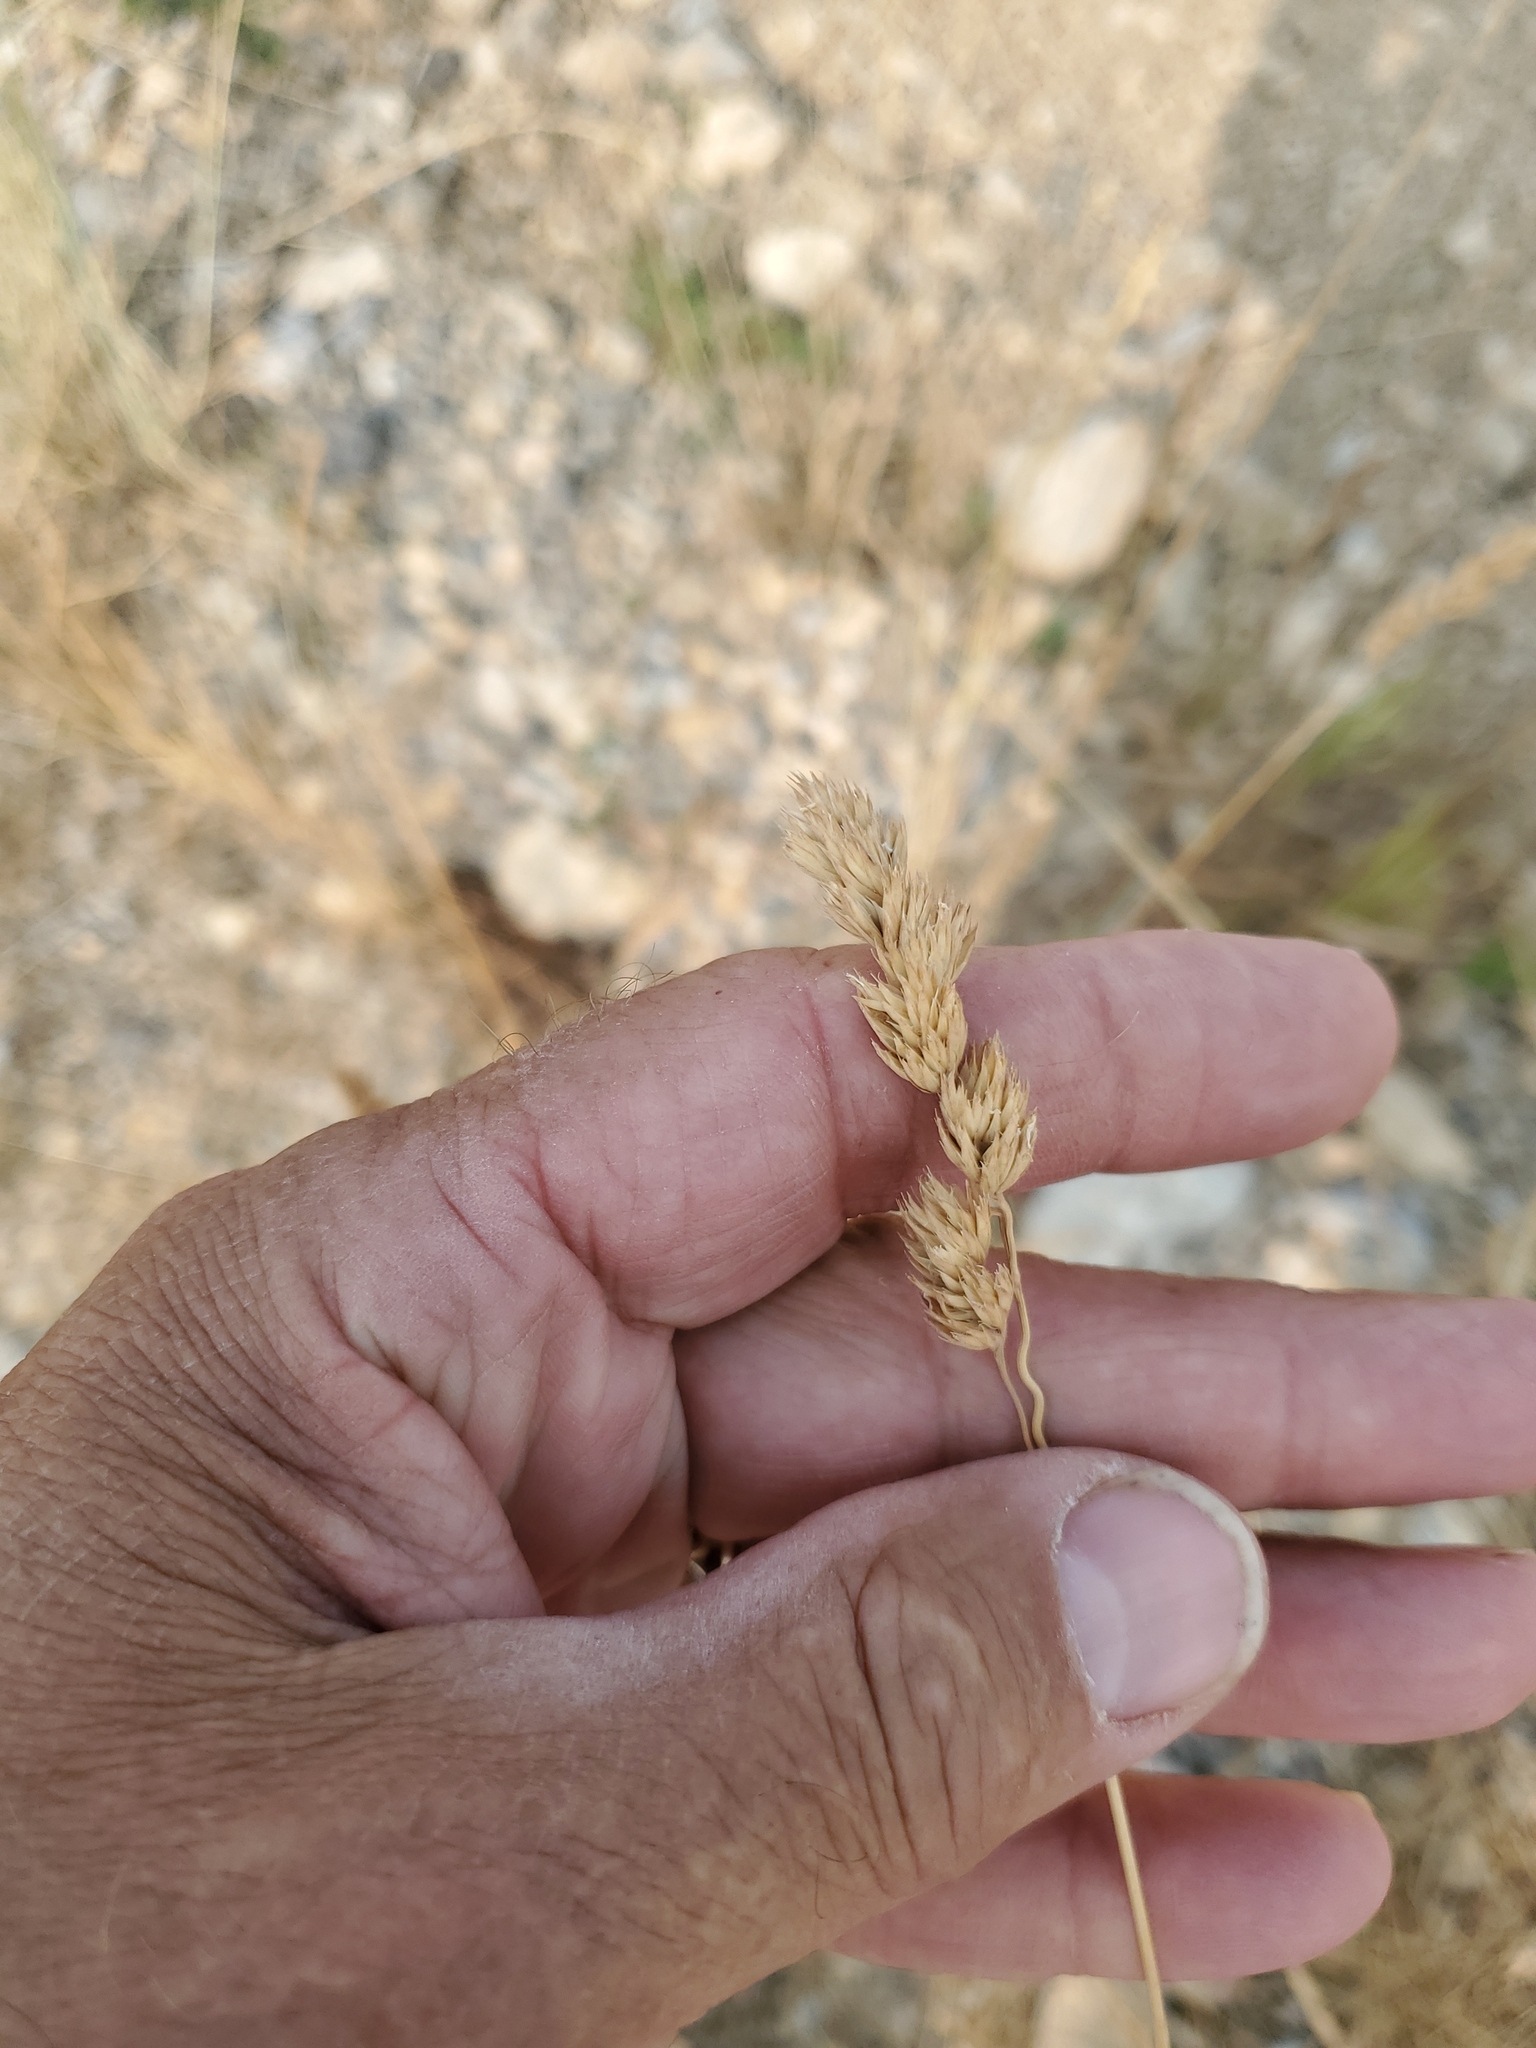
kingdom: Plantae
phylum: Tracheophyta
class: Liliopsida
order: Poales
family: Poaceae
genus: Dactylis
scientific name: Dactylis glomerata
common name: Orchardgrass
